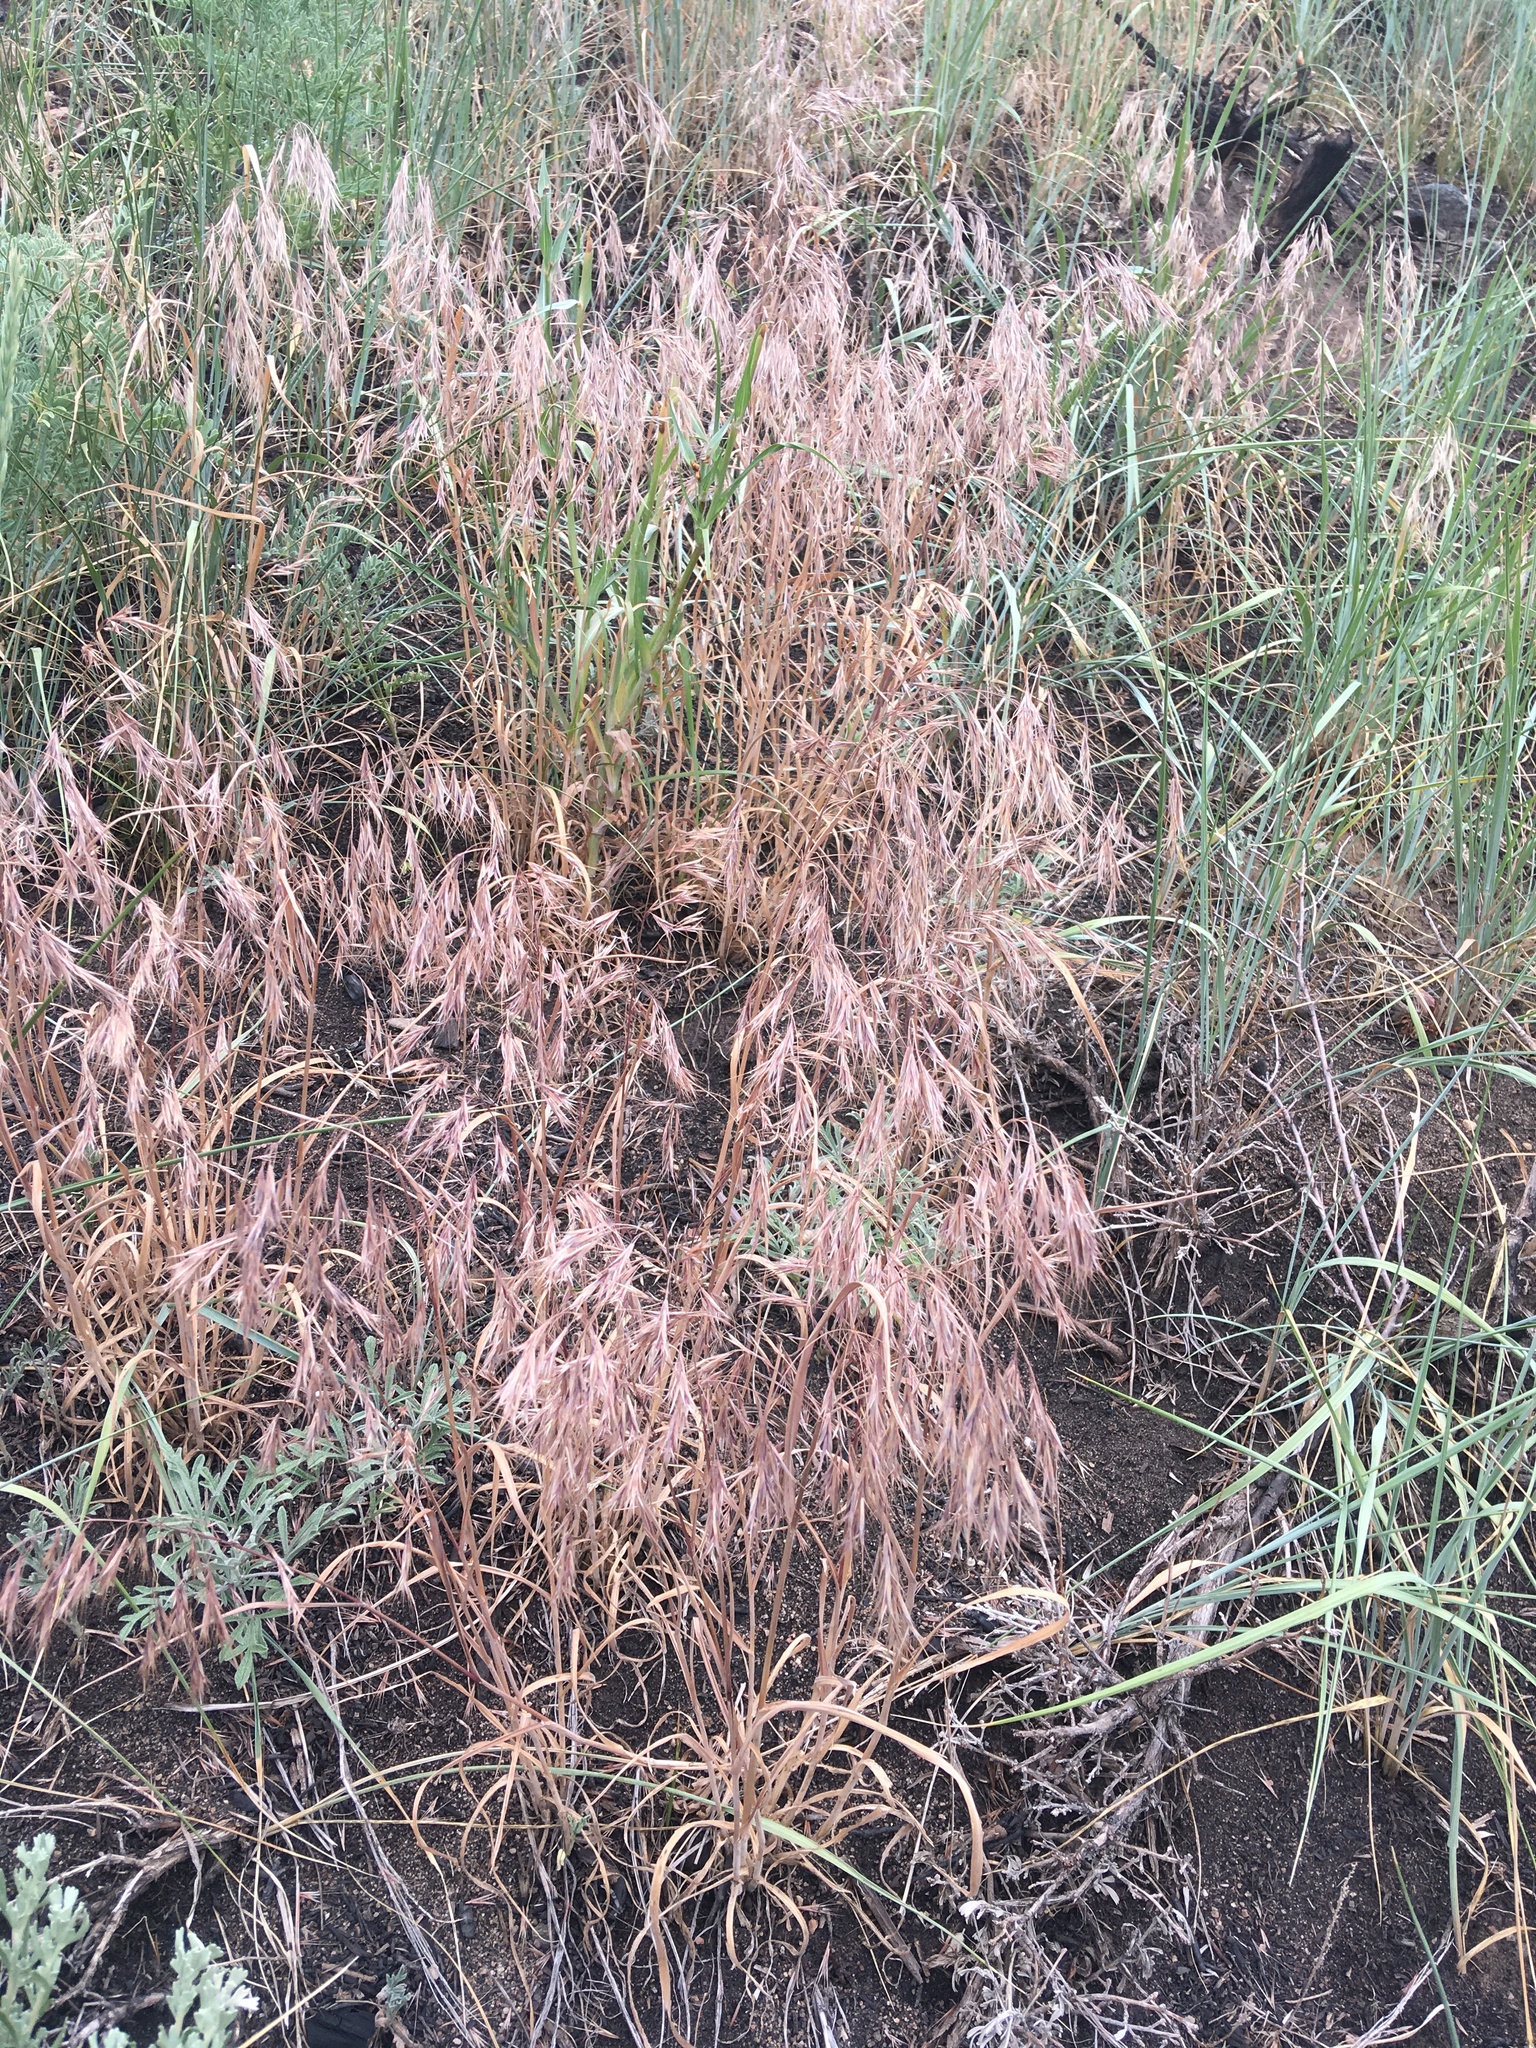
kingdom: Plantae
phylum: Tracheophyta
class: Liliopsida
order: Poales
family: Poaceae
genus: Bromus
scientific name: Bromus tectorum
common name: Cheatgrass
